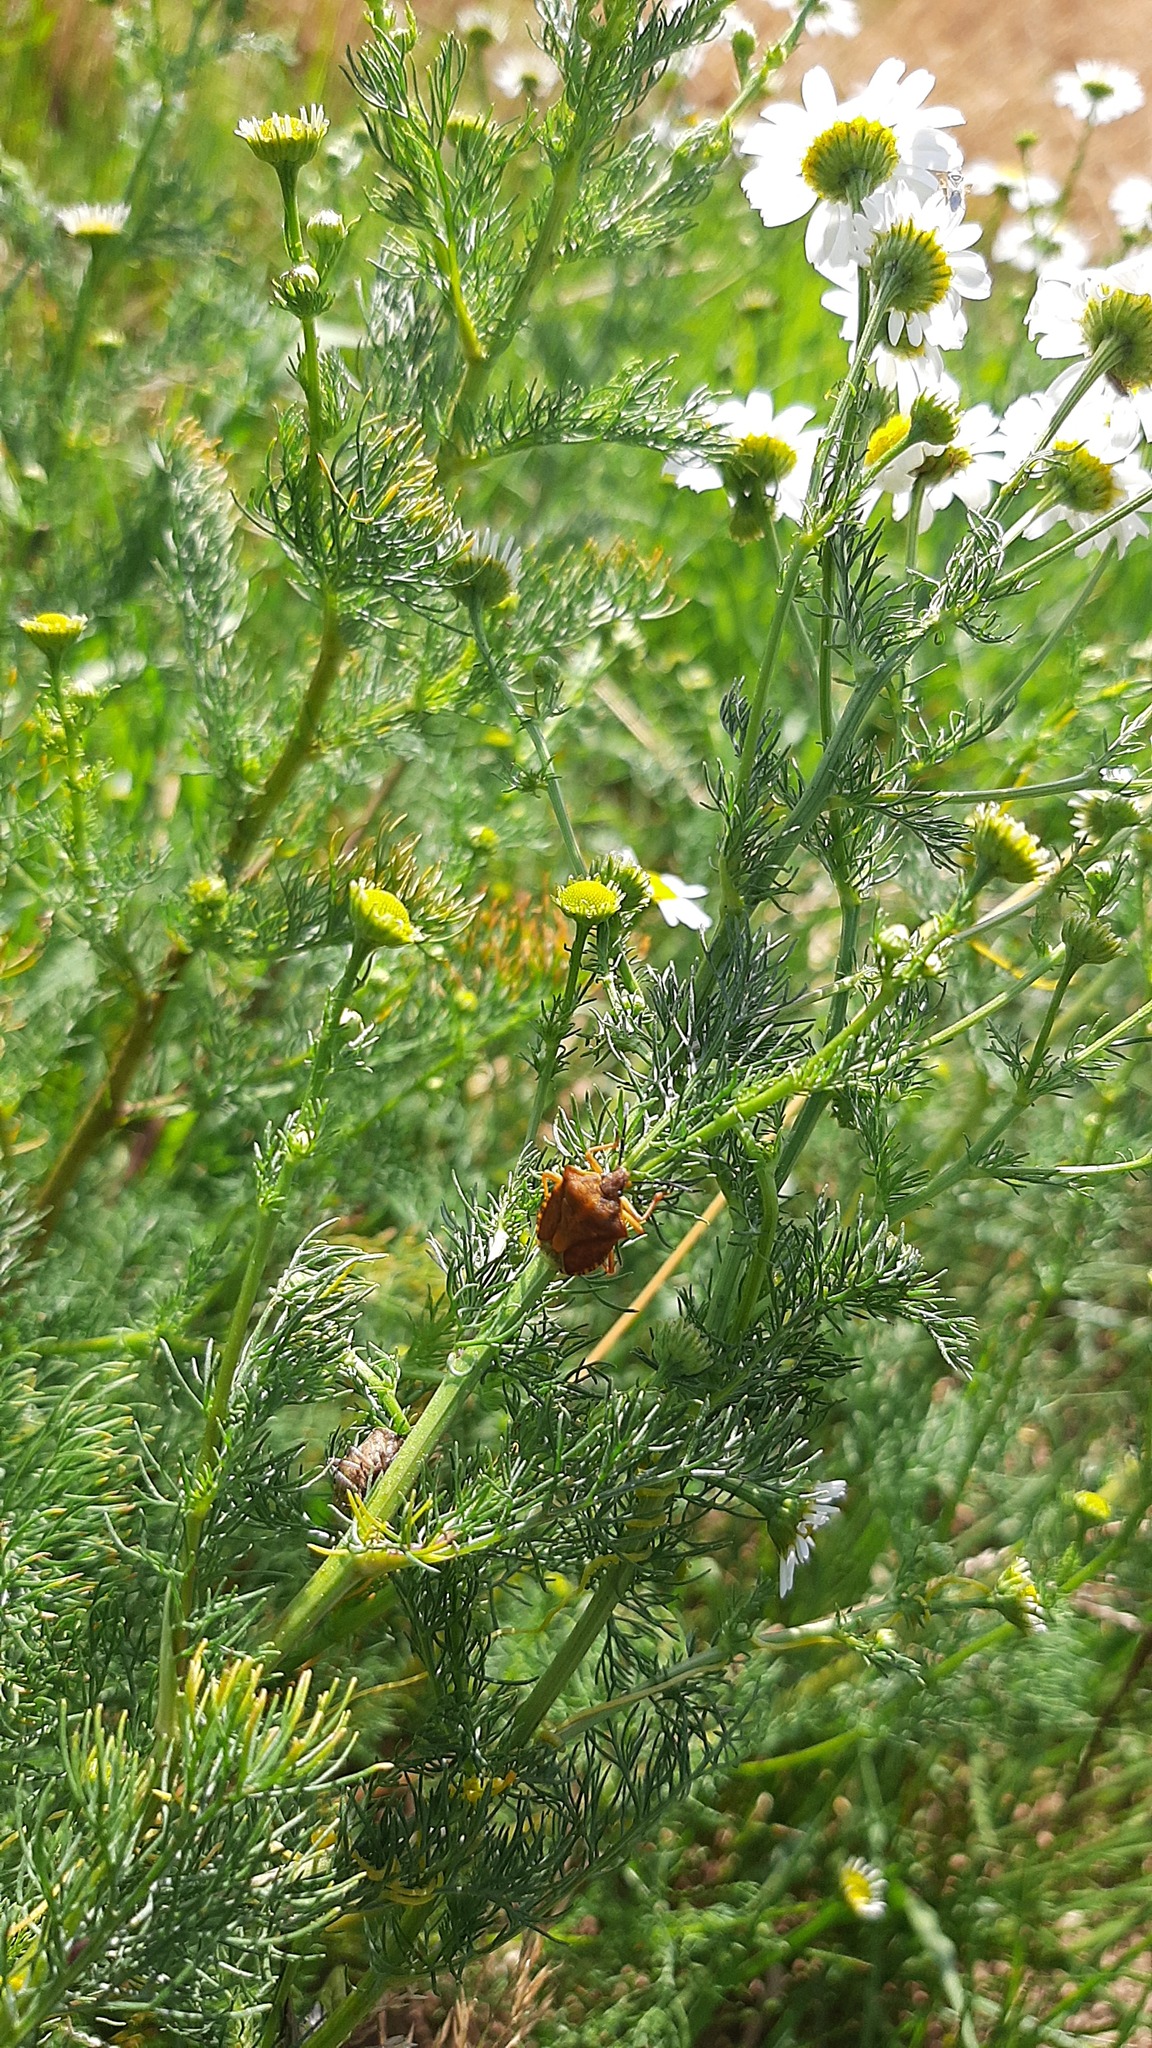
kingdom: Animalia
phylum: Arthropoda
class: Insecta
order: Hemiptera
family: Pentatomidae
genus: Carpocoris
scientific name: Carpocoris purpureipennis
